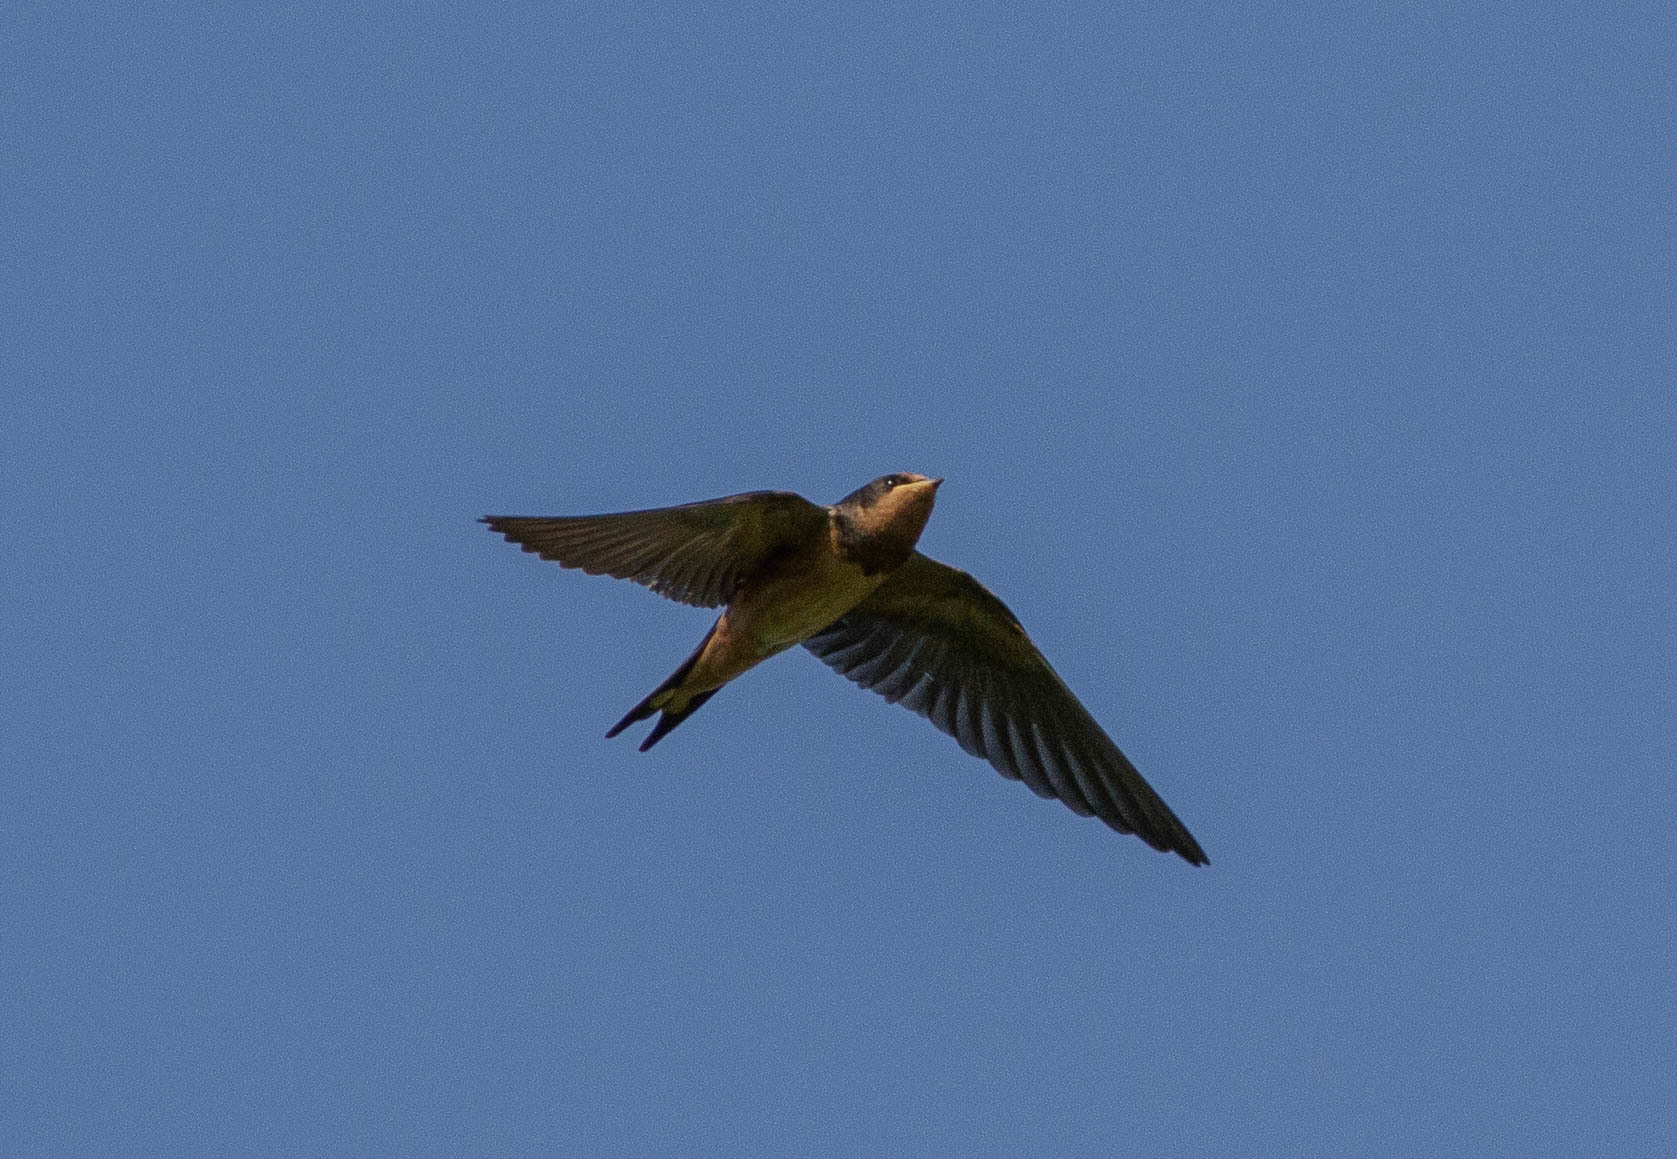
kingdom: Animalia
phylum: Chordata
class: Aves
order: Passeriformes
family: Hirundinidae
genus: Hirundo
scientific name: Hirundo rustica
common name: Barn swallow
